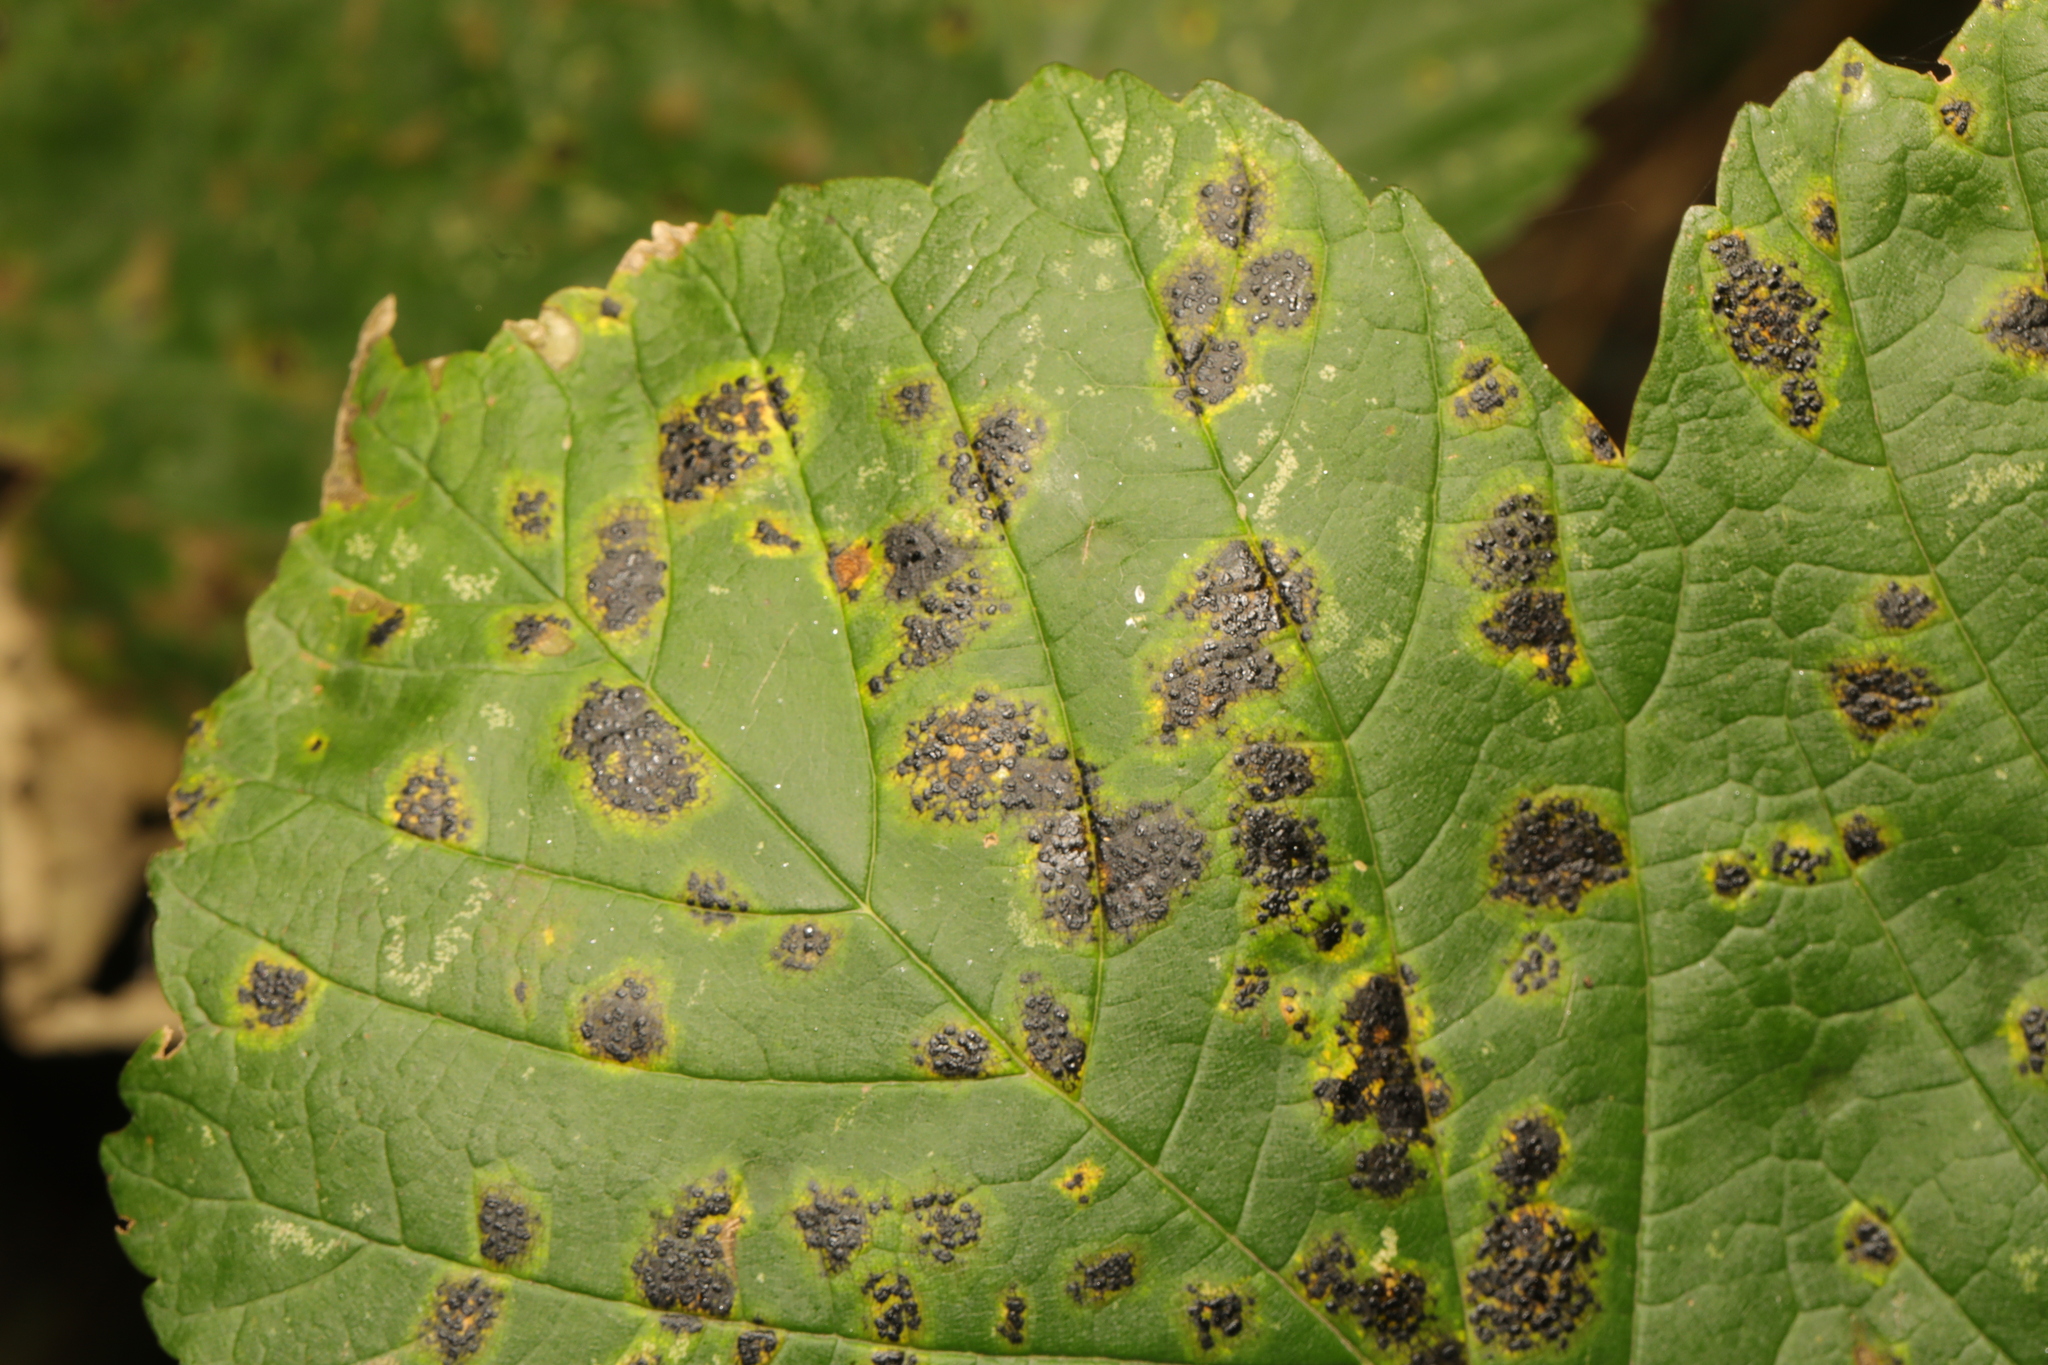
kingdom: Fungi
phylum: Ascomycota
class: Leotiomycetes
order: Rhytismatales
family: Rhytismataceae
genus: Rhytisma
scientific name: Rhytisma acerinum
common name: European tar spot
